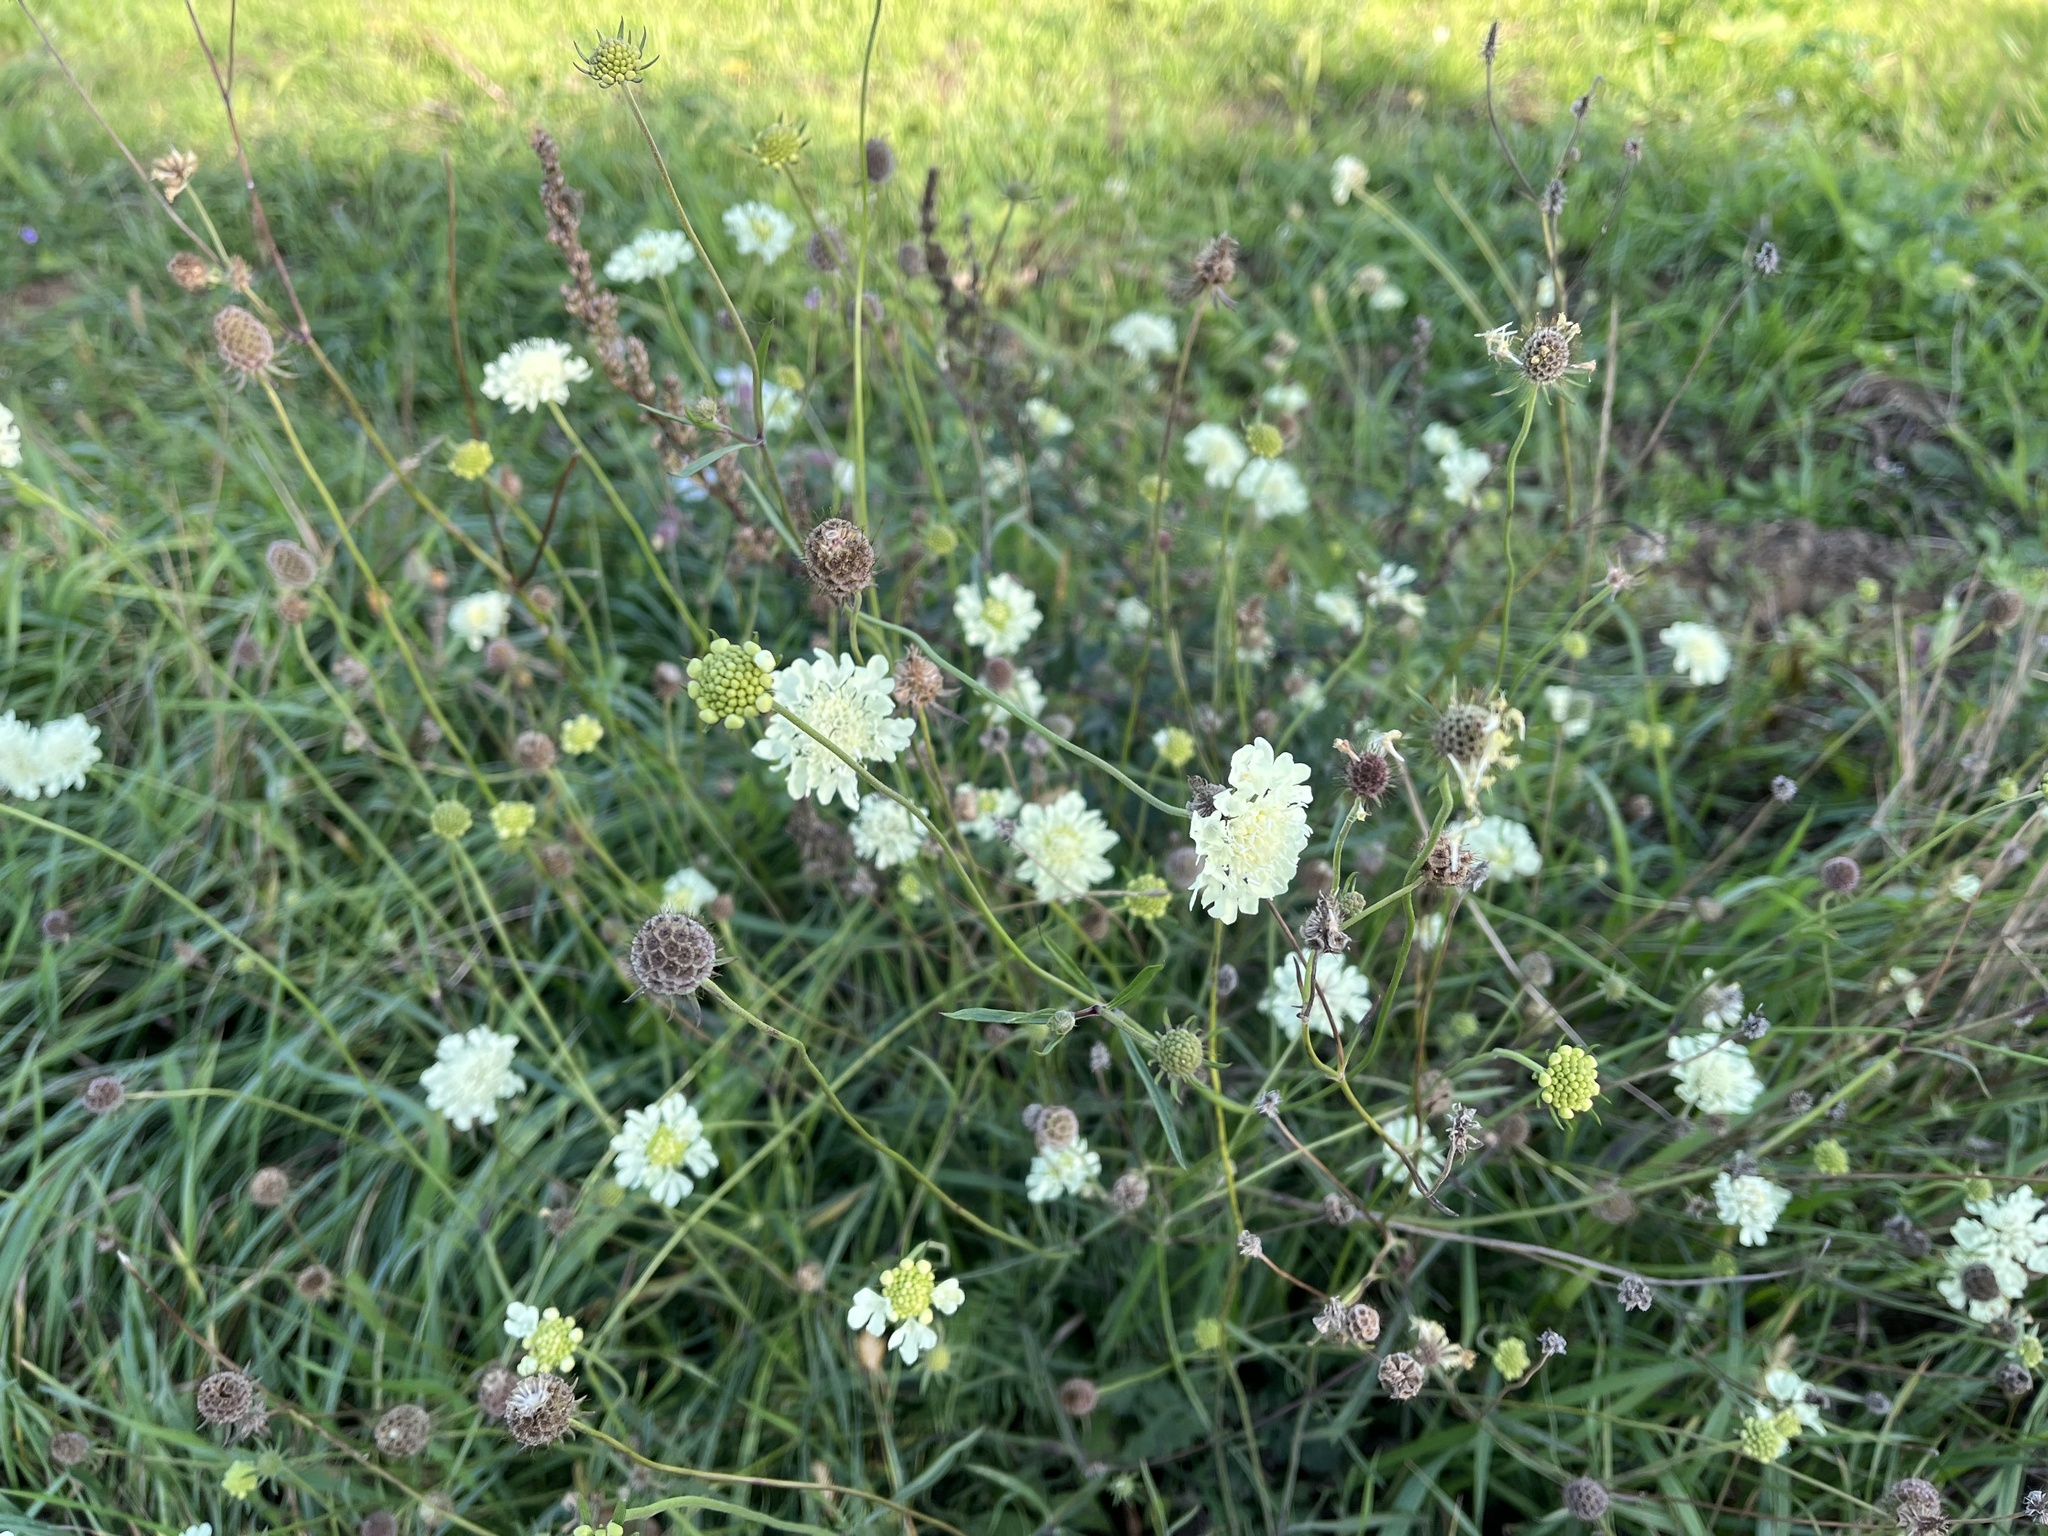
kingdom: Plantae
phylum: Tracheophyta
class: Magnoliopsida
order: Dipsacales
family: Caprifoliaceae
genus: Scabiosa
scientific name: Scabiosa ochroleuca
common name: Cream pincushions
